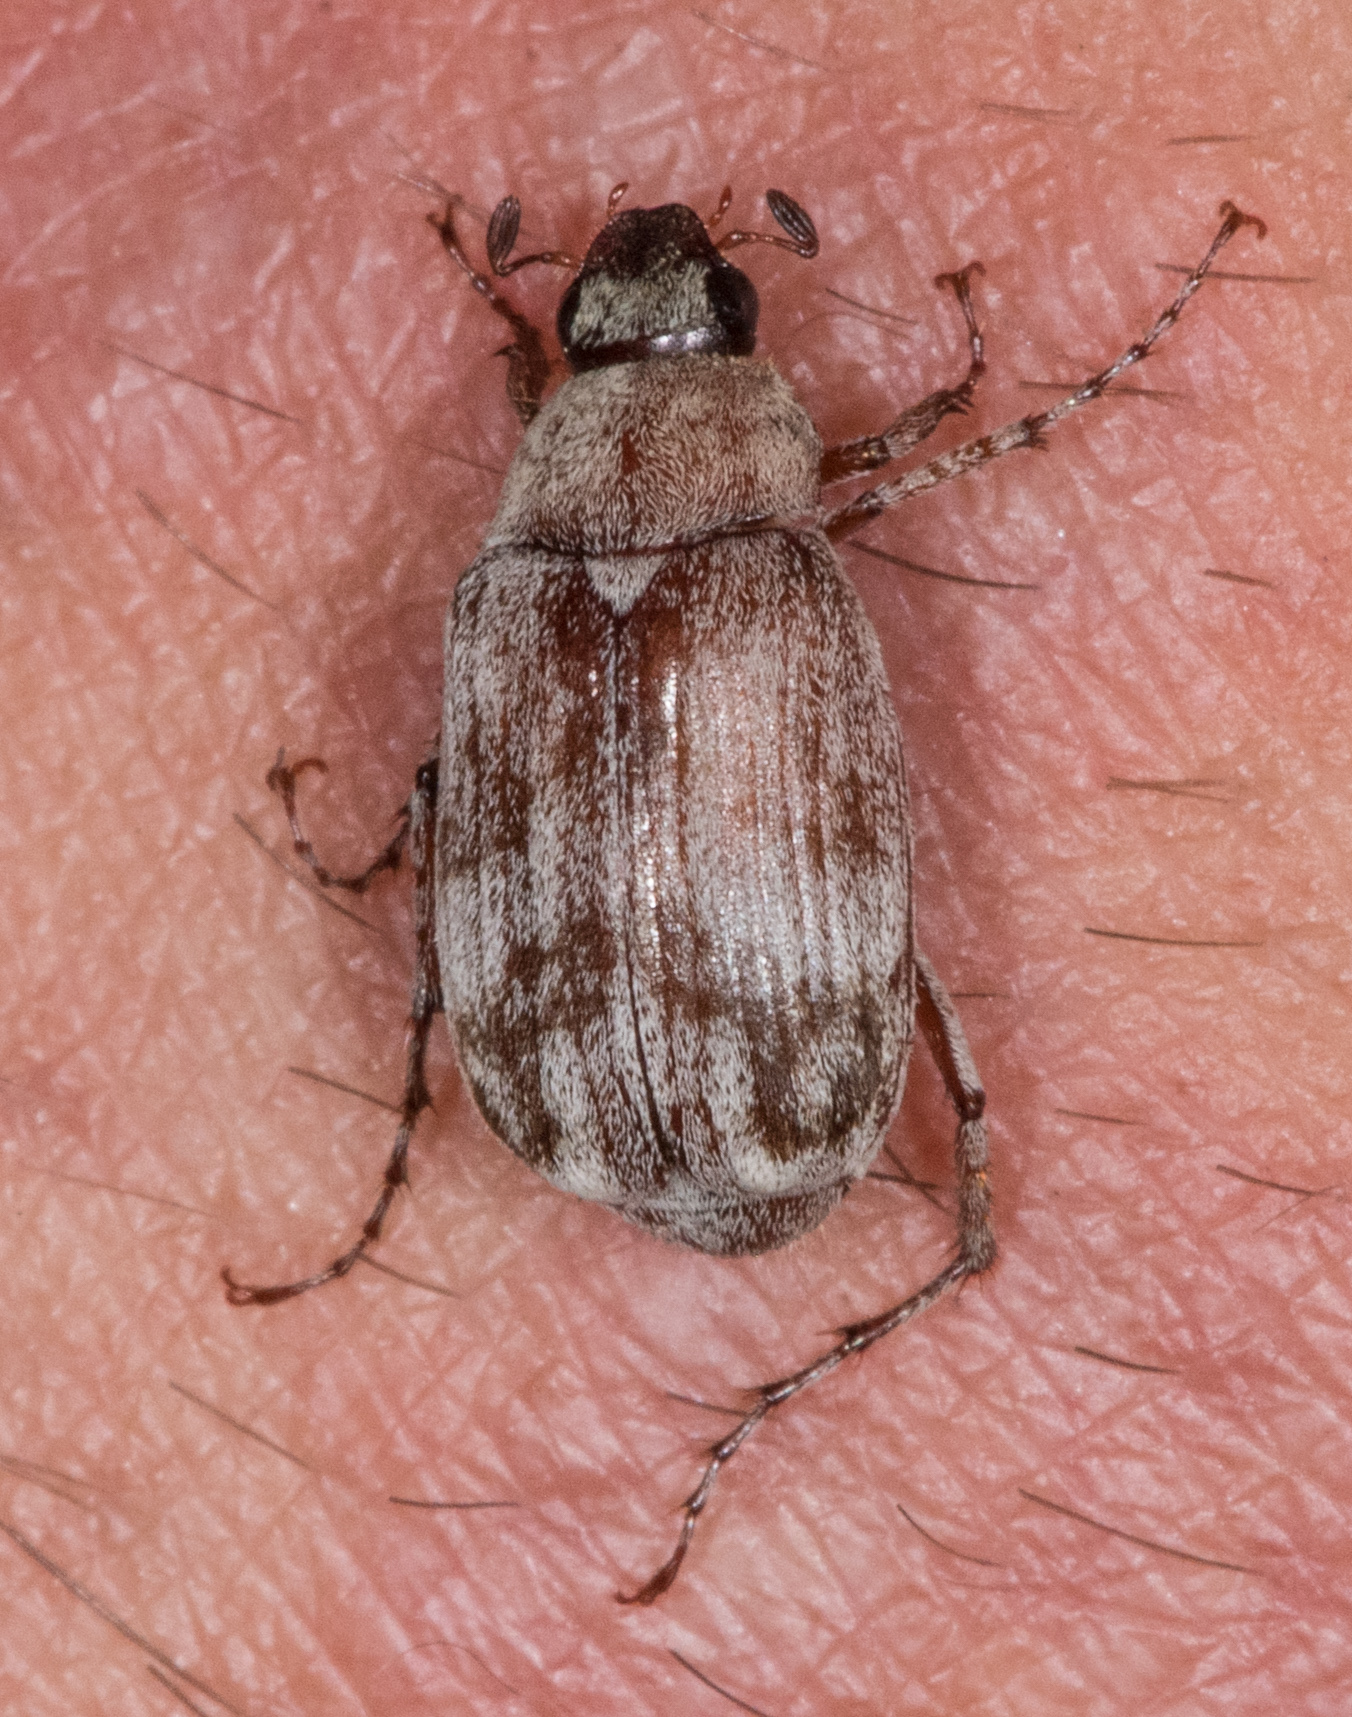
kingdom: Animalia
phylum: Arthropoda
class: Insecta
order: Coleoptera
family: Scarabaeidae
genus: Isonychus
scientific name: Isonychus arizonensis
